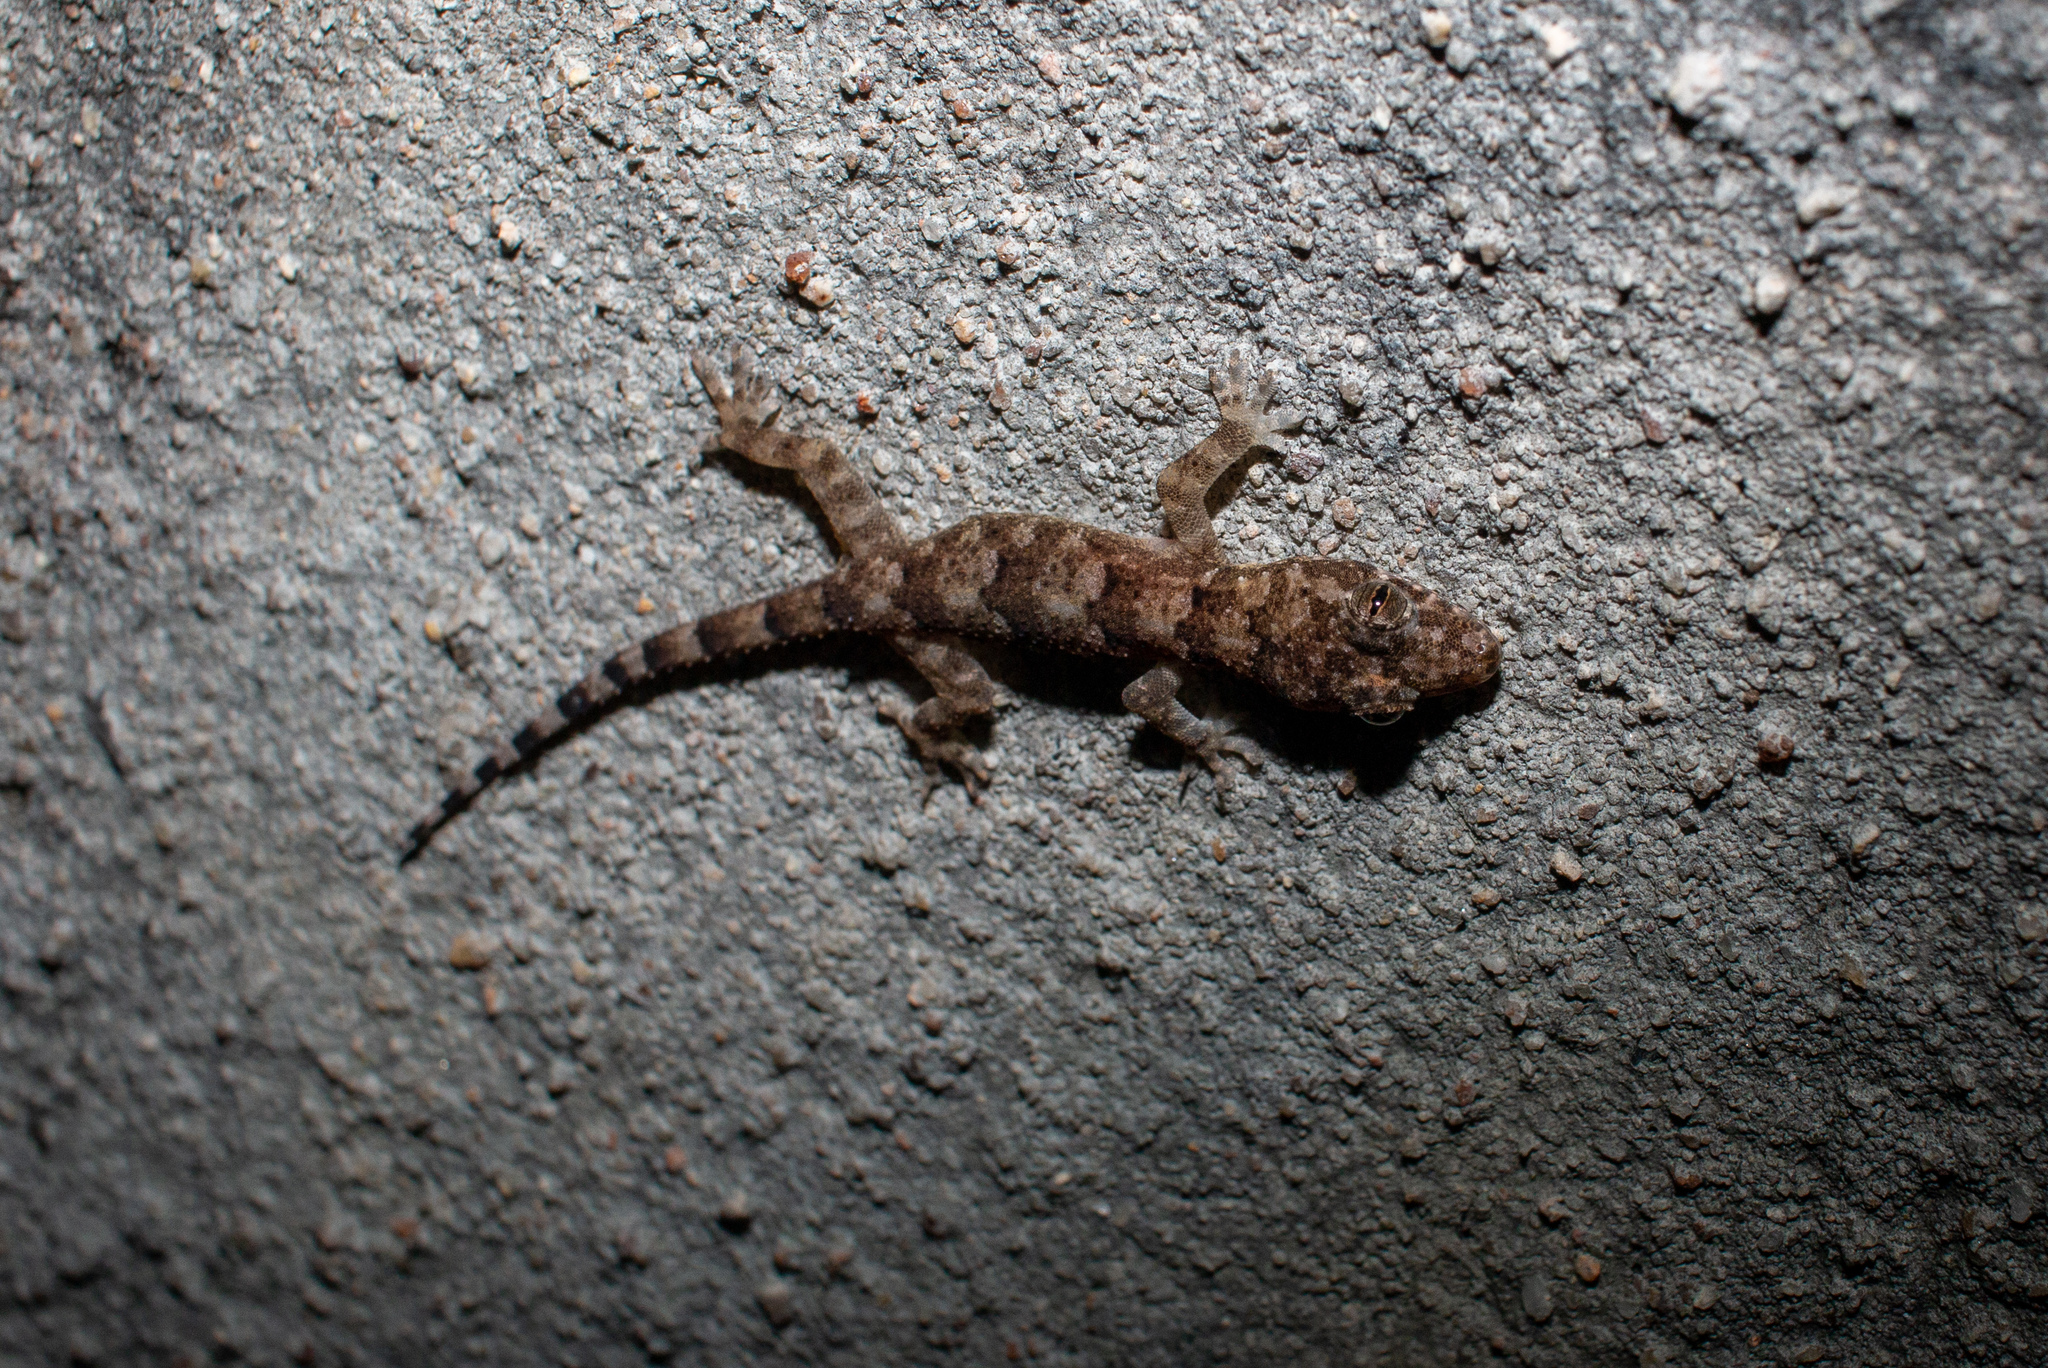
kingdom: Animalia
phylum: Chordata
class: Squamata
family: Gekkonidae
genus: Hemidactylus
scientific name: Hemidactylus mabouia
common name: House gecko
